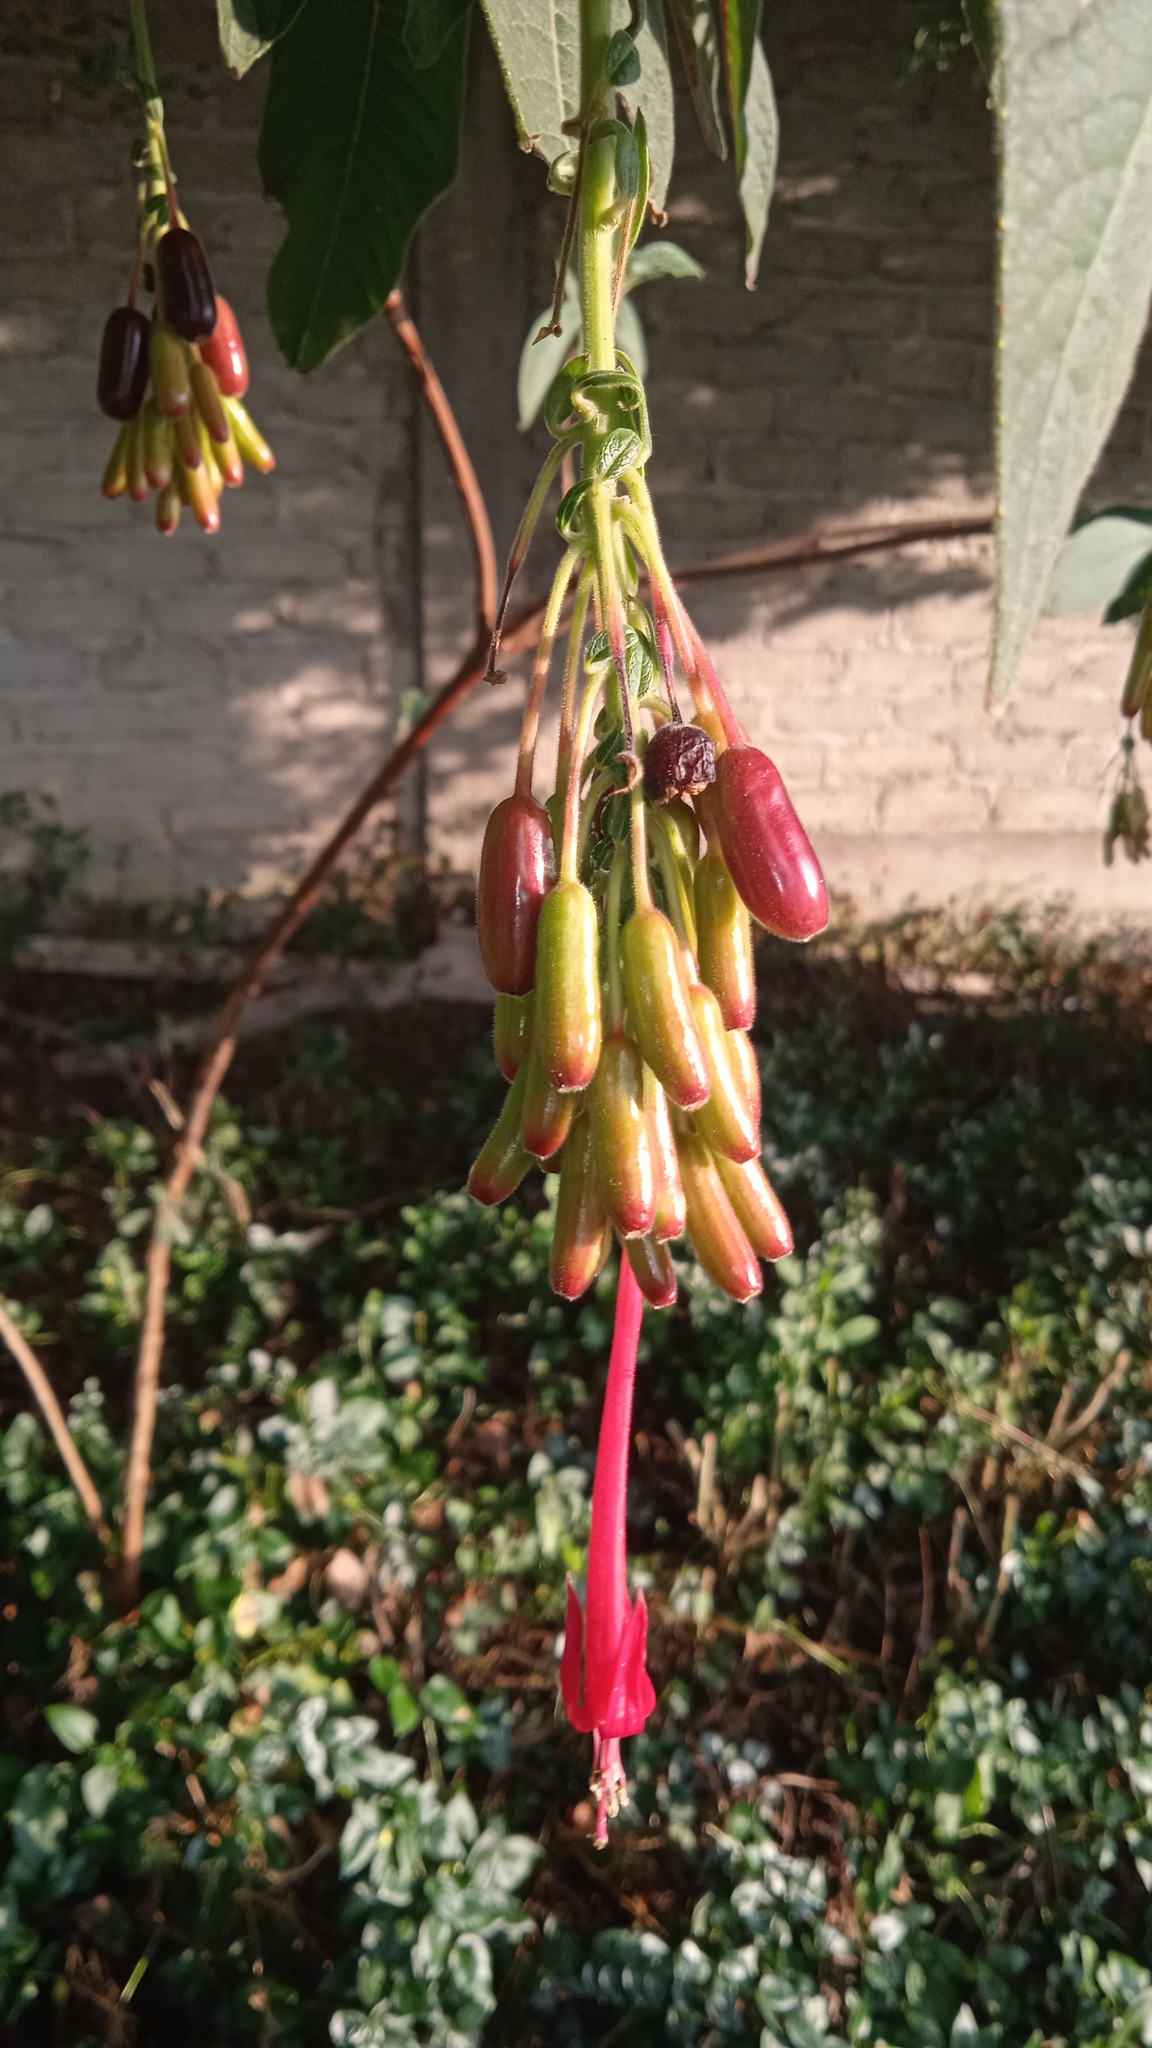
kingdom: Plantae
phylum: Tracheophyta
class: Magnoliopsida
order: Myrtales
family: Onagraceae
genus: Fuchsia
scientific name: Fuchsia boliviana
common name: Bolivian fuchsia
